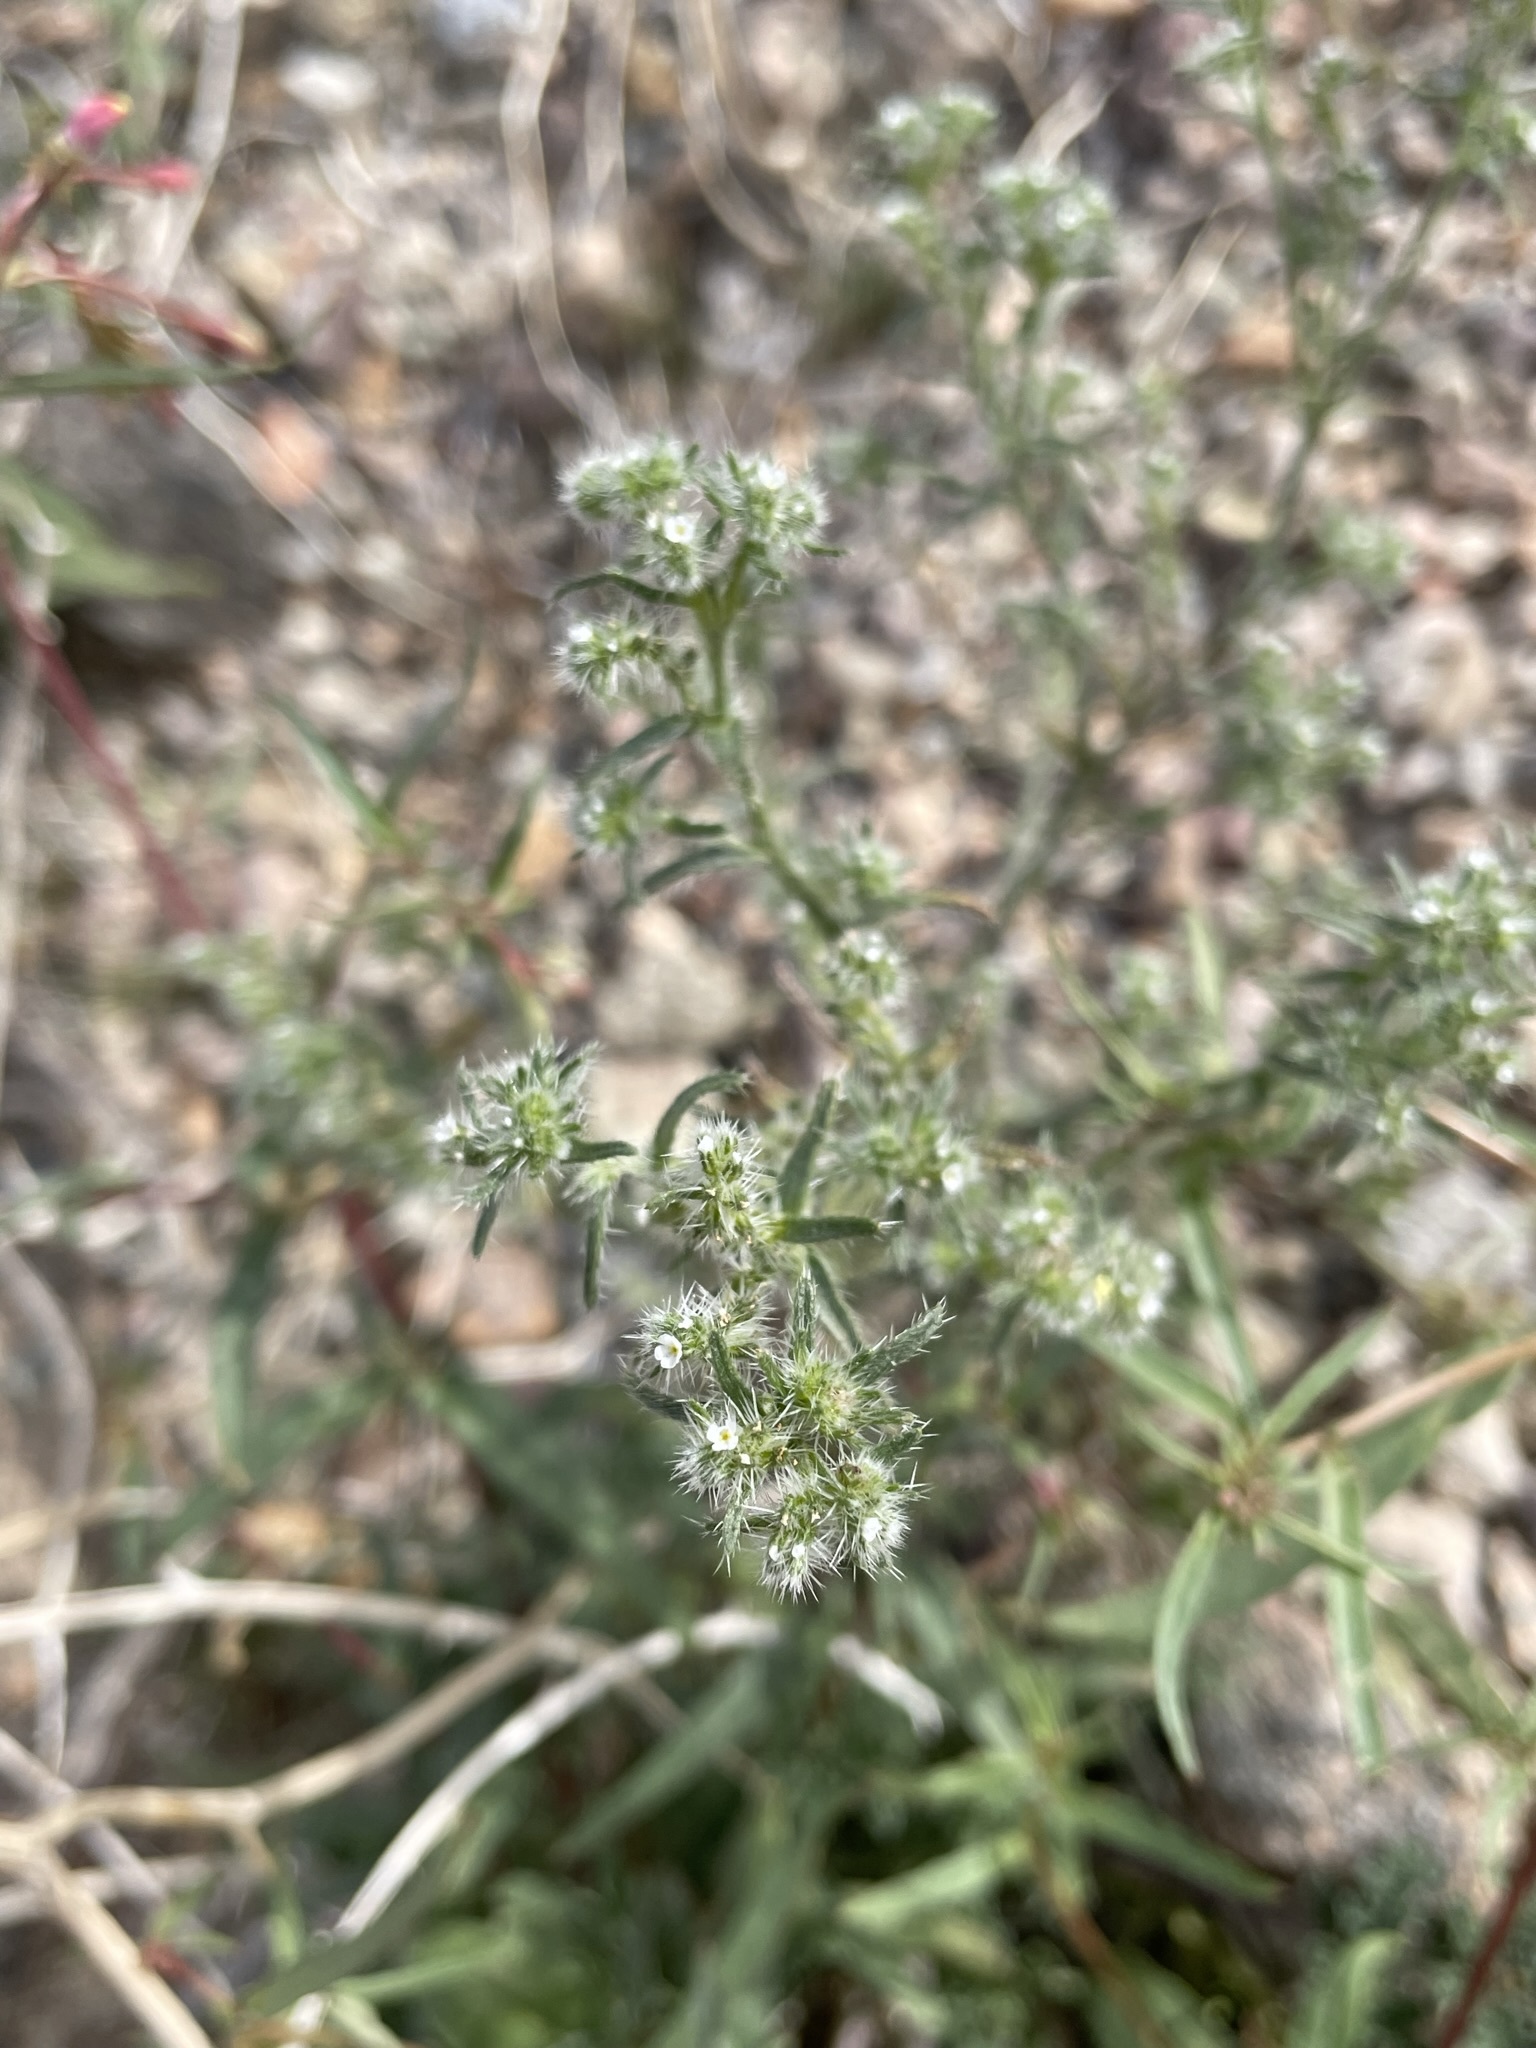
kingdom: Plantae
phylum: Tracheophyta
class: Magnoliopsida
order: Boraginales
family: Boraginaceae
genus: Cryptantha
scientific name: Cryptantha maritima
